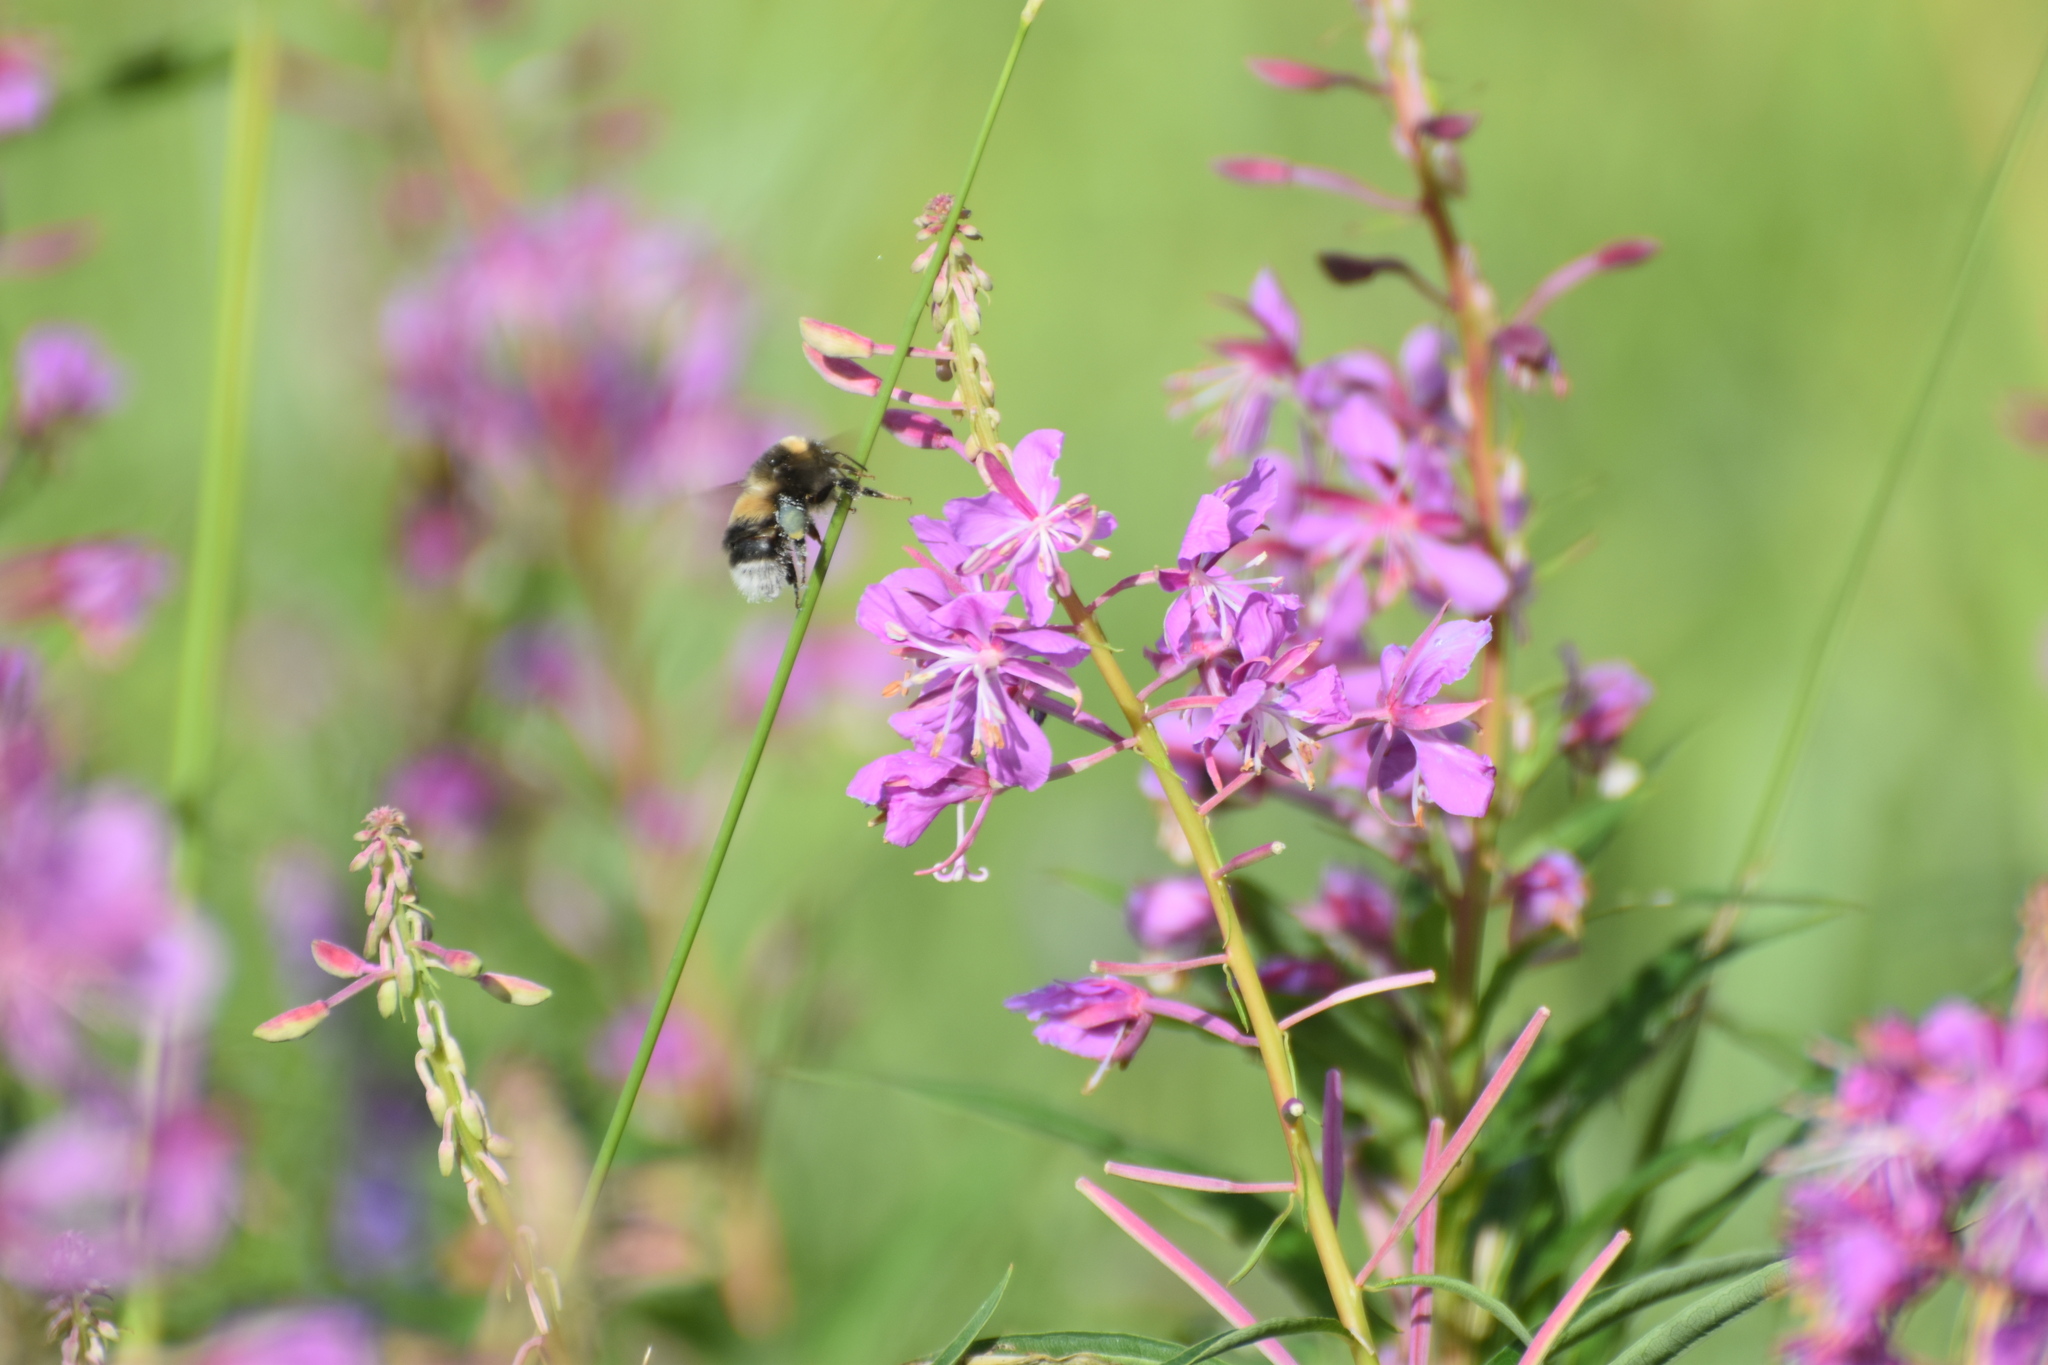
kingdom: Animalia
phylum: Arthropoda
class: Insecta
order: Hymenoptera
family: Apidae
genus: Bombus
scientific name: Bombus sporadicus
